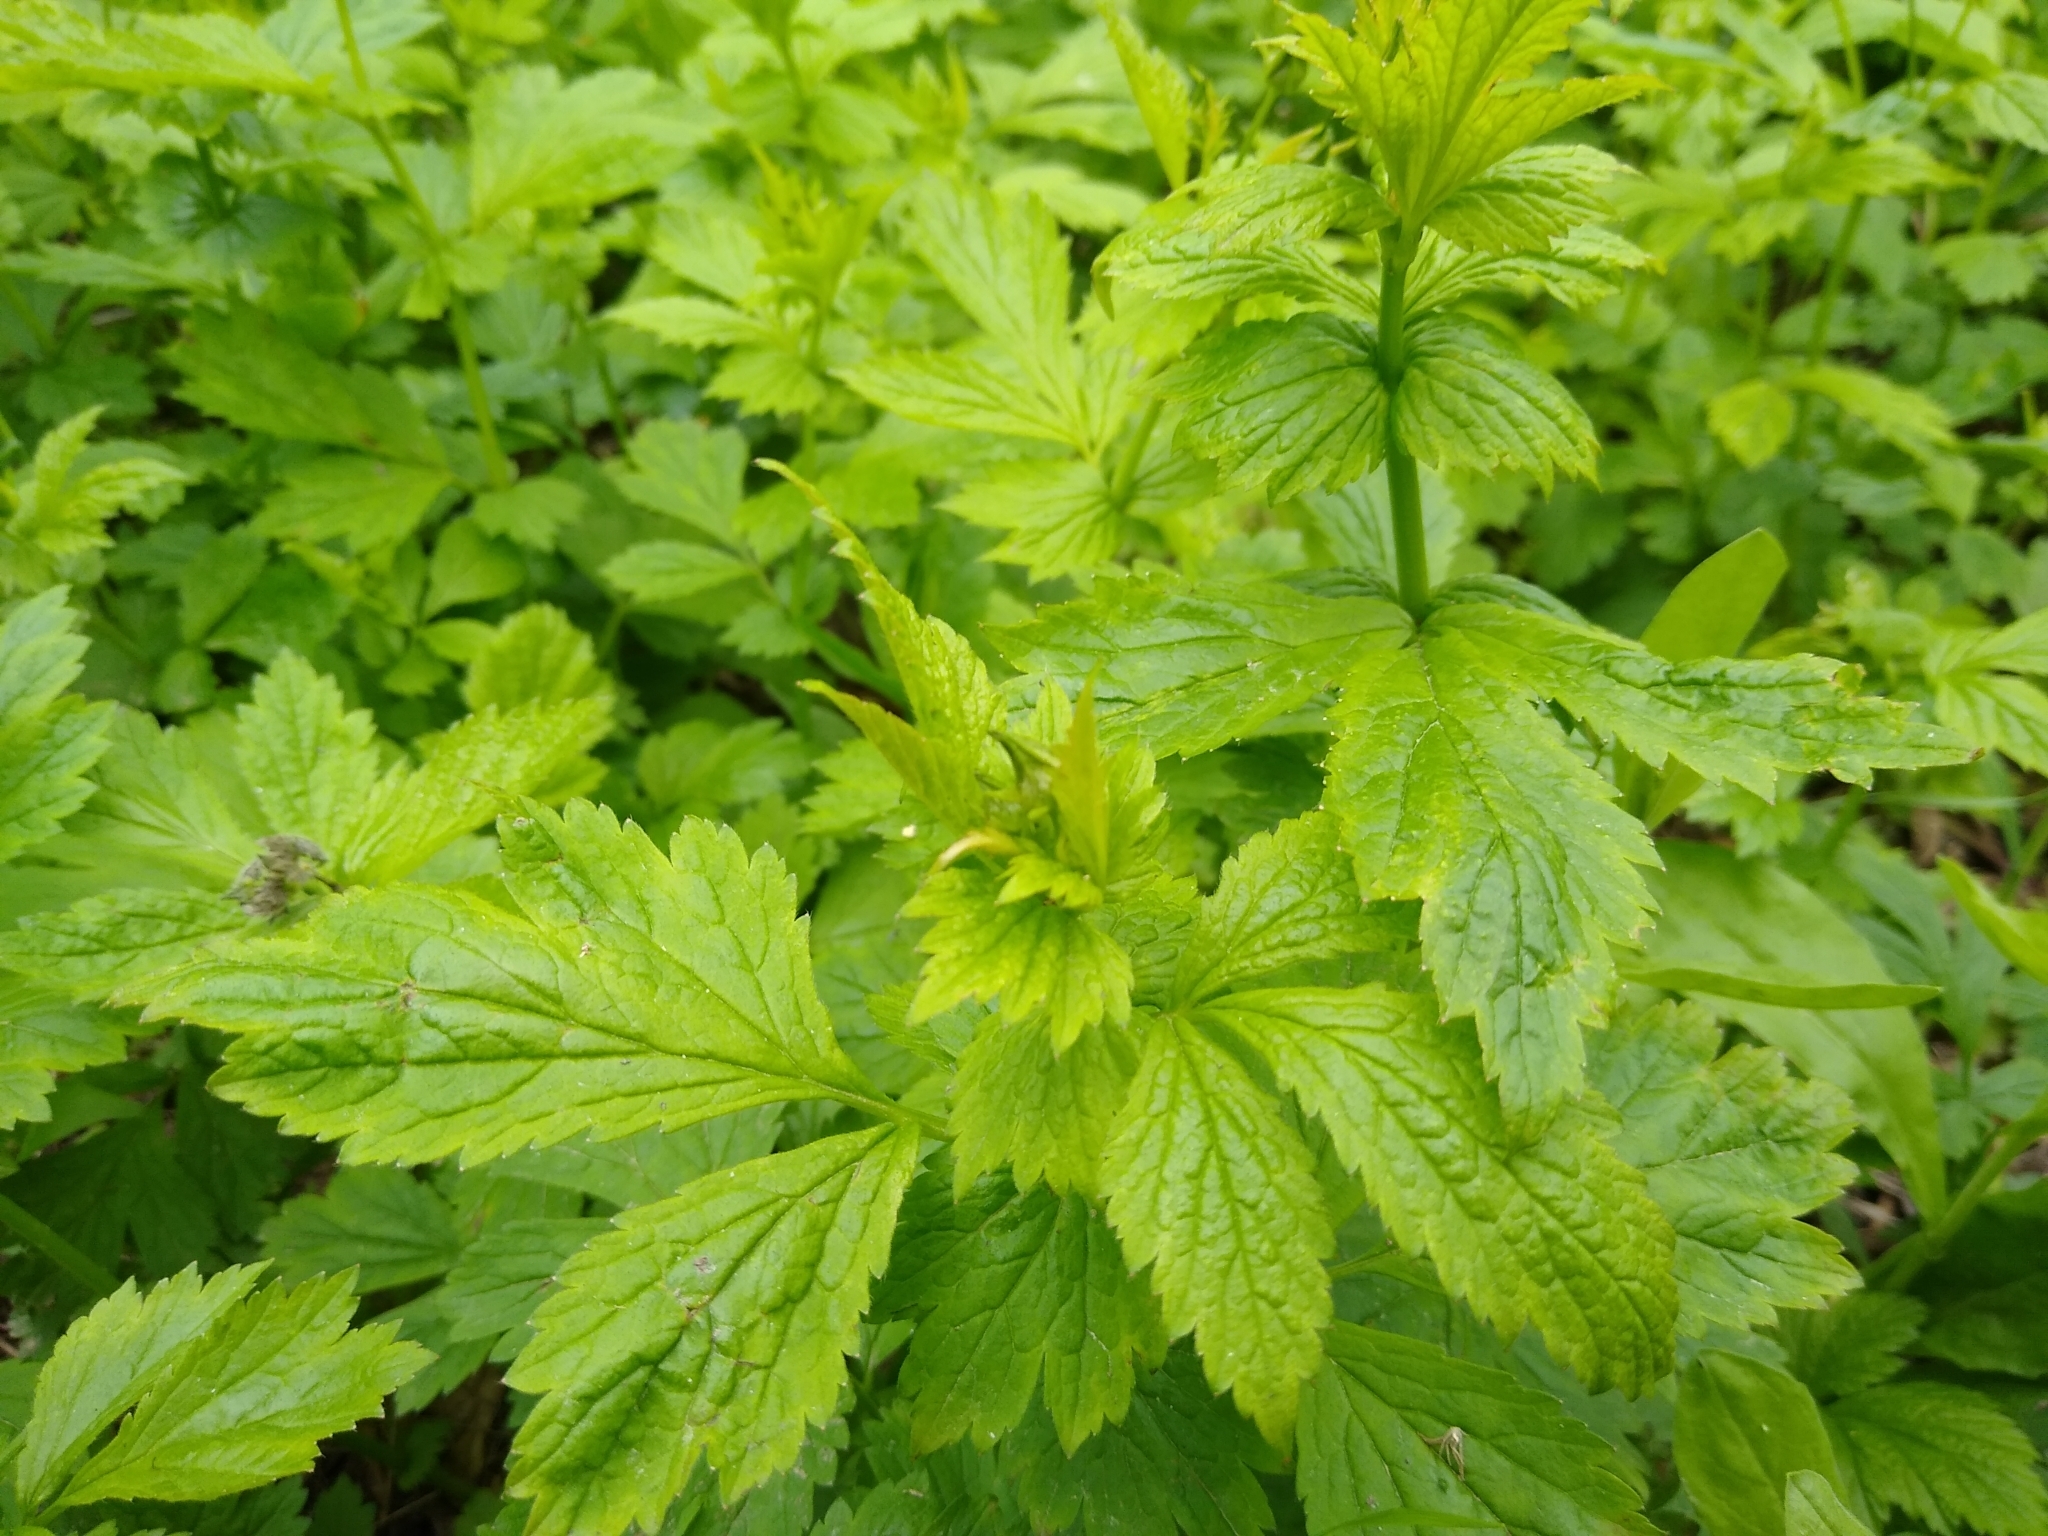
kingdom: Plantae
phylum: Tracheophyta
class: Magnoliopsida
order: Rosales
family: Rosaceae
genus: Geum
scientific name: Geum urbanum
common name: Wood avens
